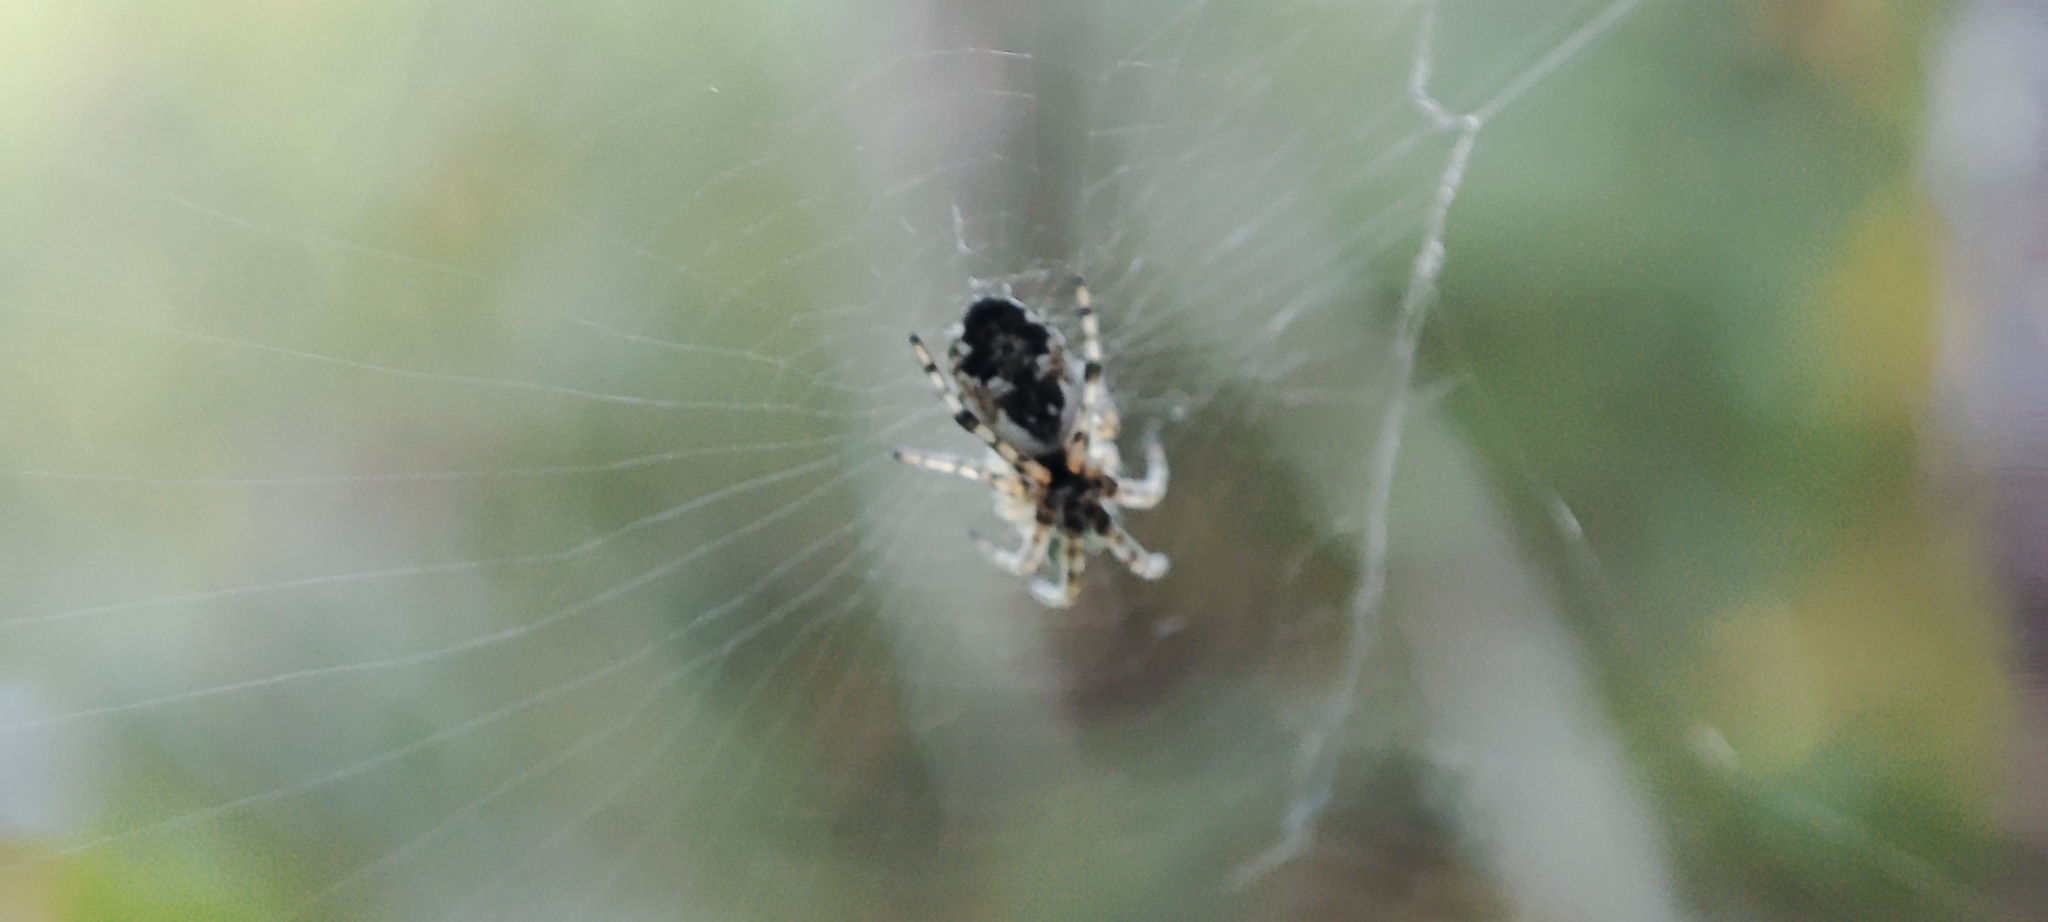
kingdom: Animalia
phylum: Arthropoda
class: Arachnida
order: Araneae
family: Araneidae
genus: Cyclosa
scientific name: Cyclosa conica
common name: Conical trashline orbweaver
